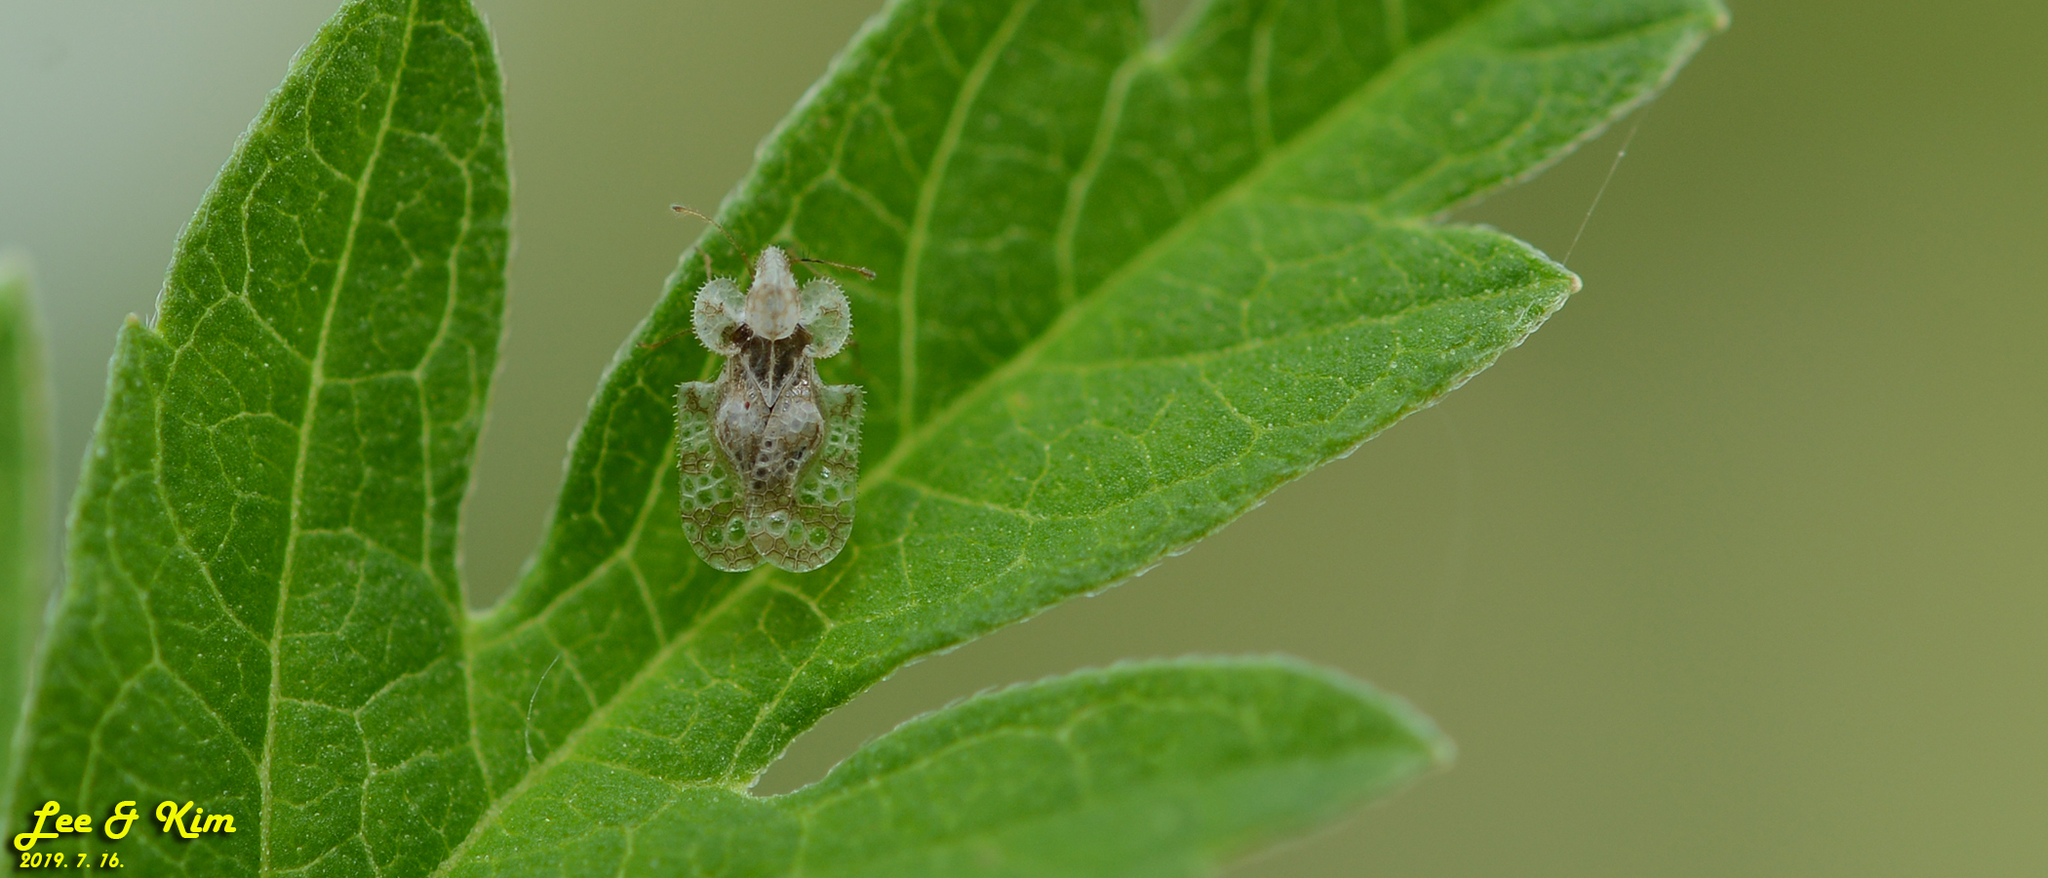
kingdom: Animalia
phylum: Arthropoda
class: Insecta
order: Hemiptera
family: Tingidae
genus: Corythucha
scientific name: Corythucha marmorata
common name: Chrysanthemum lace bug
